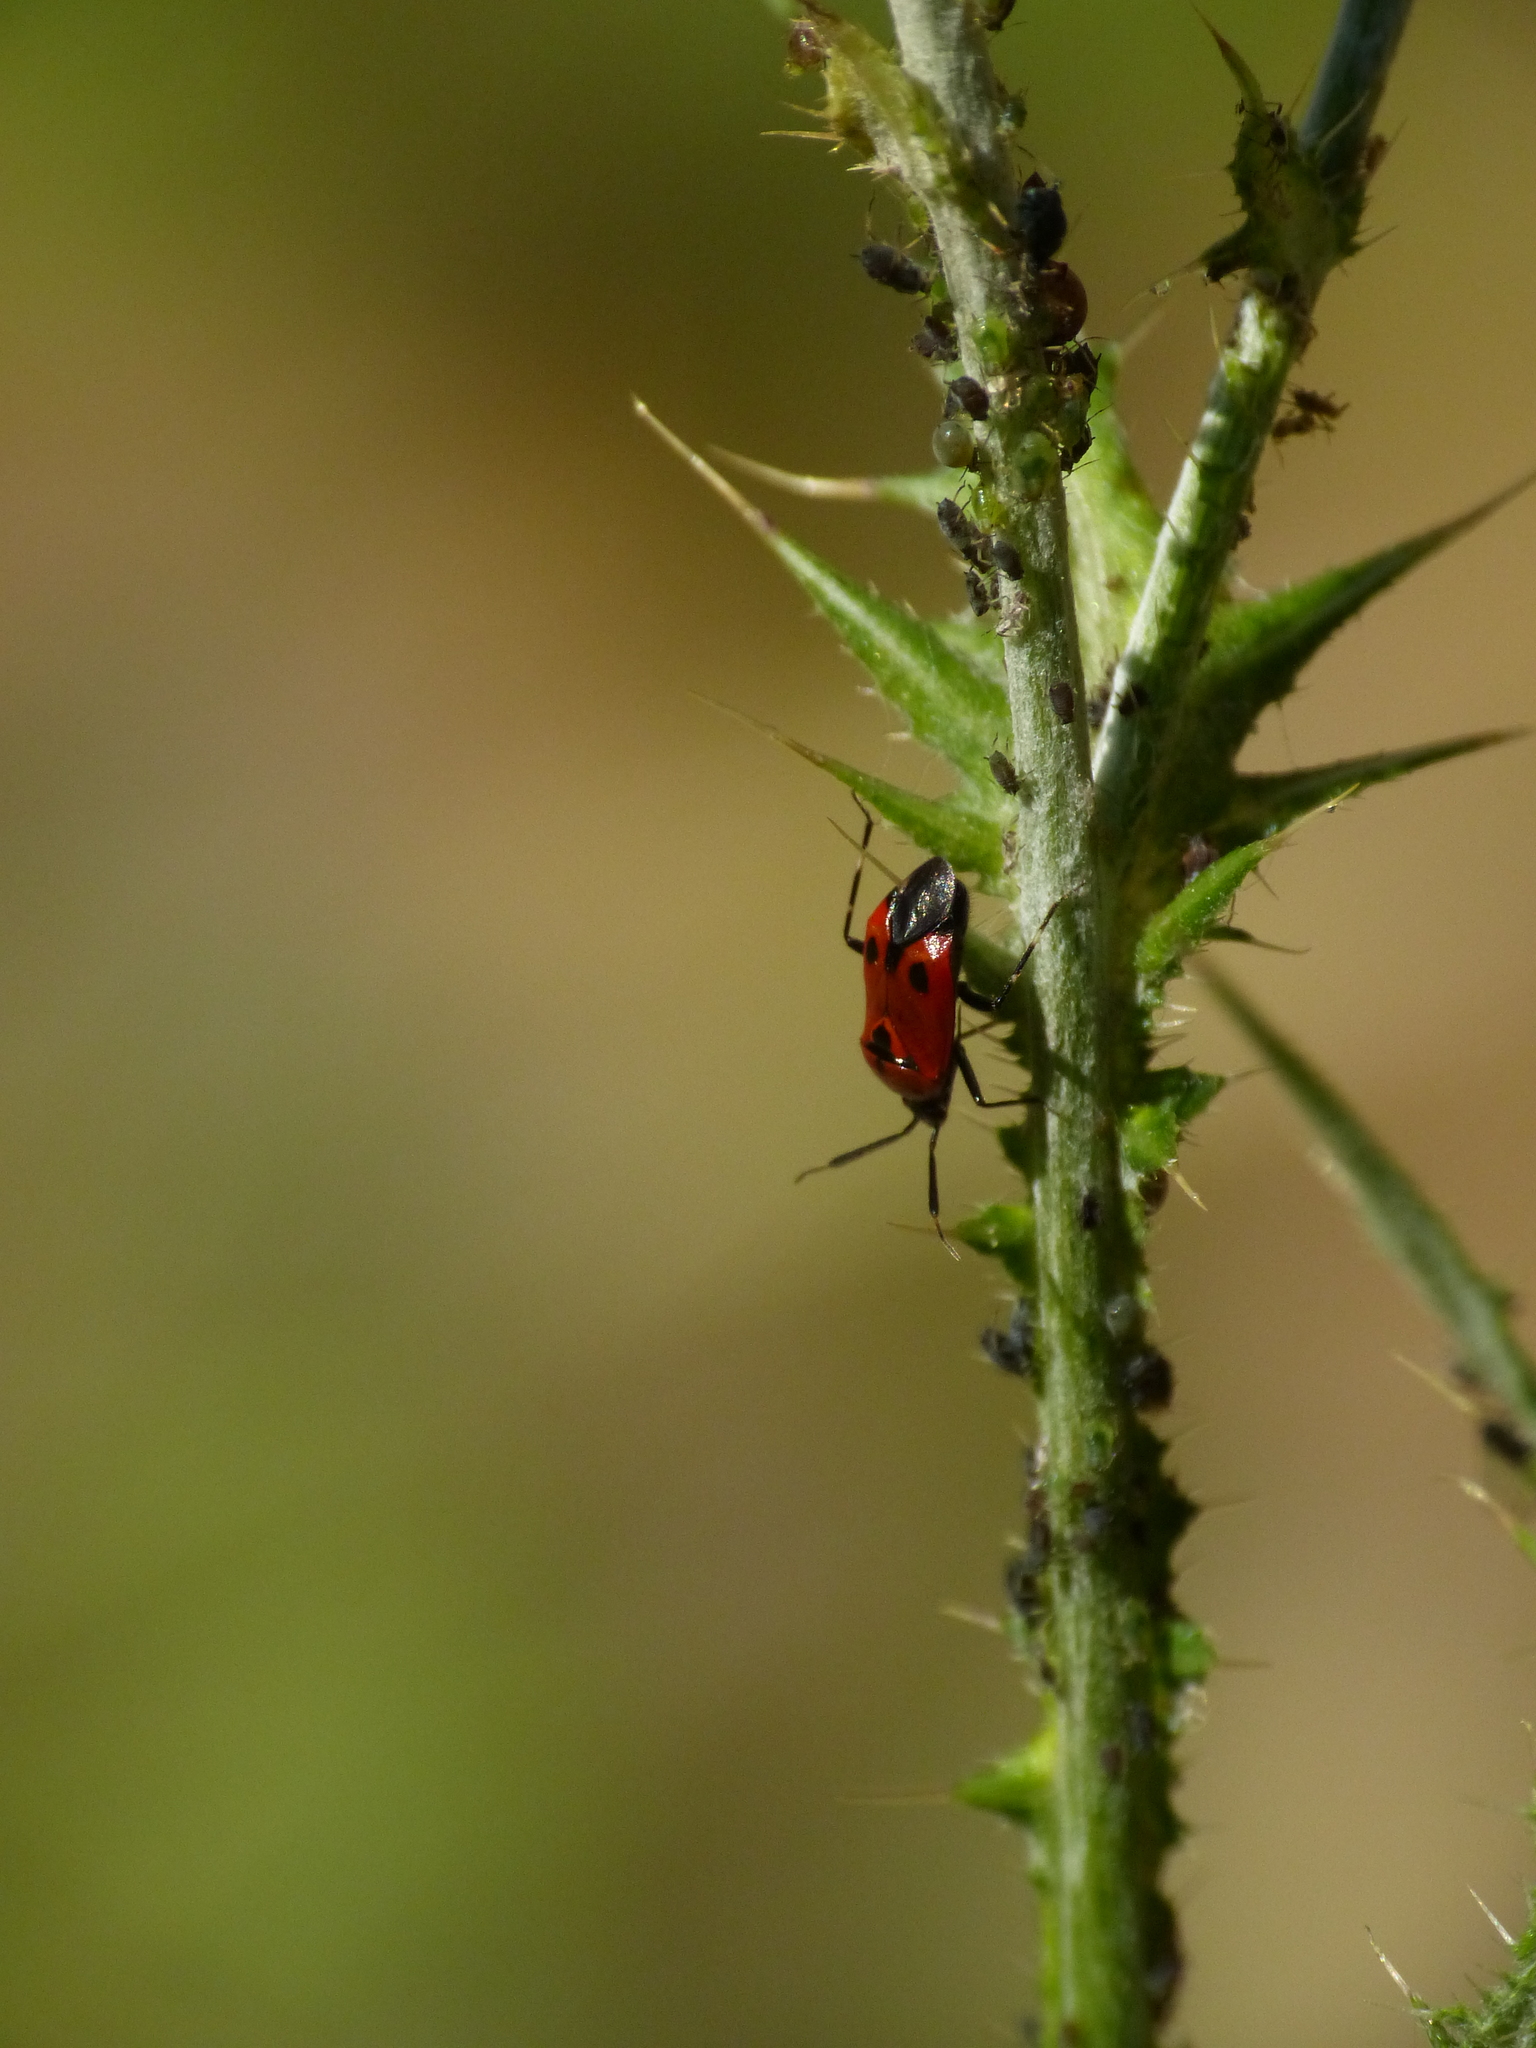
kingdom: Animalia
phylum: Arthropoda
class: Insecta
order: Hemiptera
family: Miridae
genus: Deraeocoris
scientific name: Deraeocoris punctum
